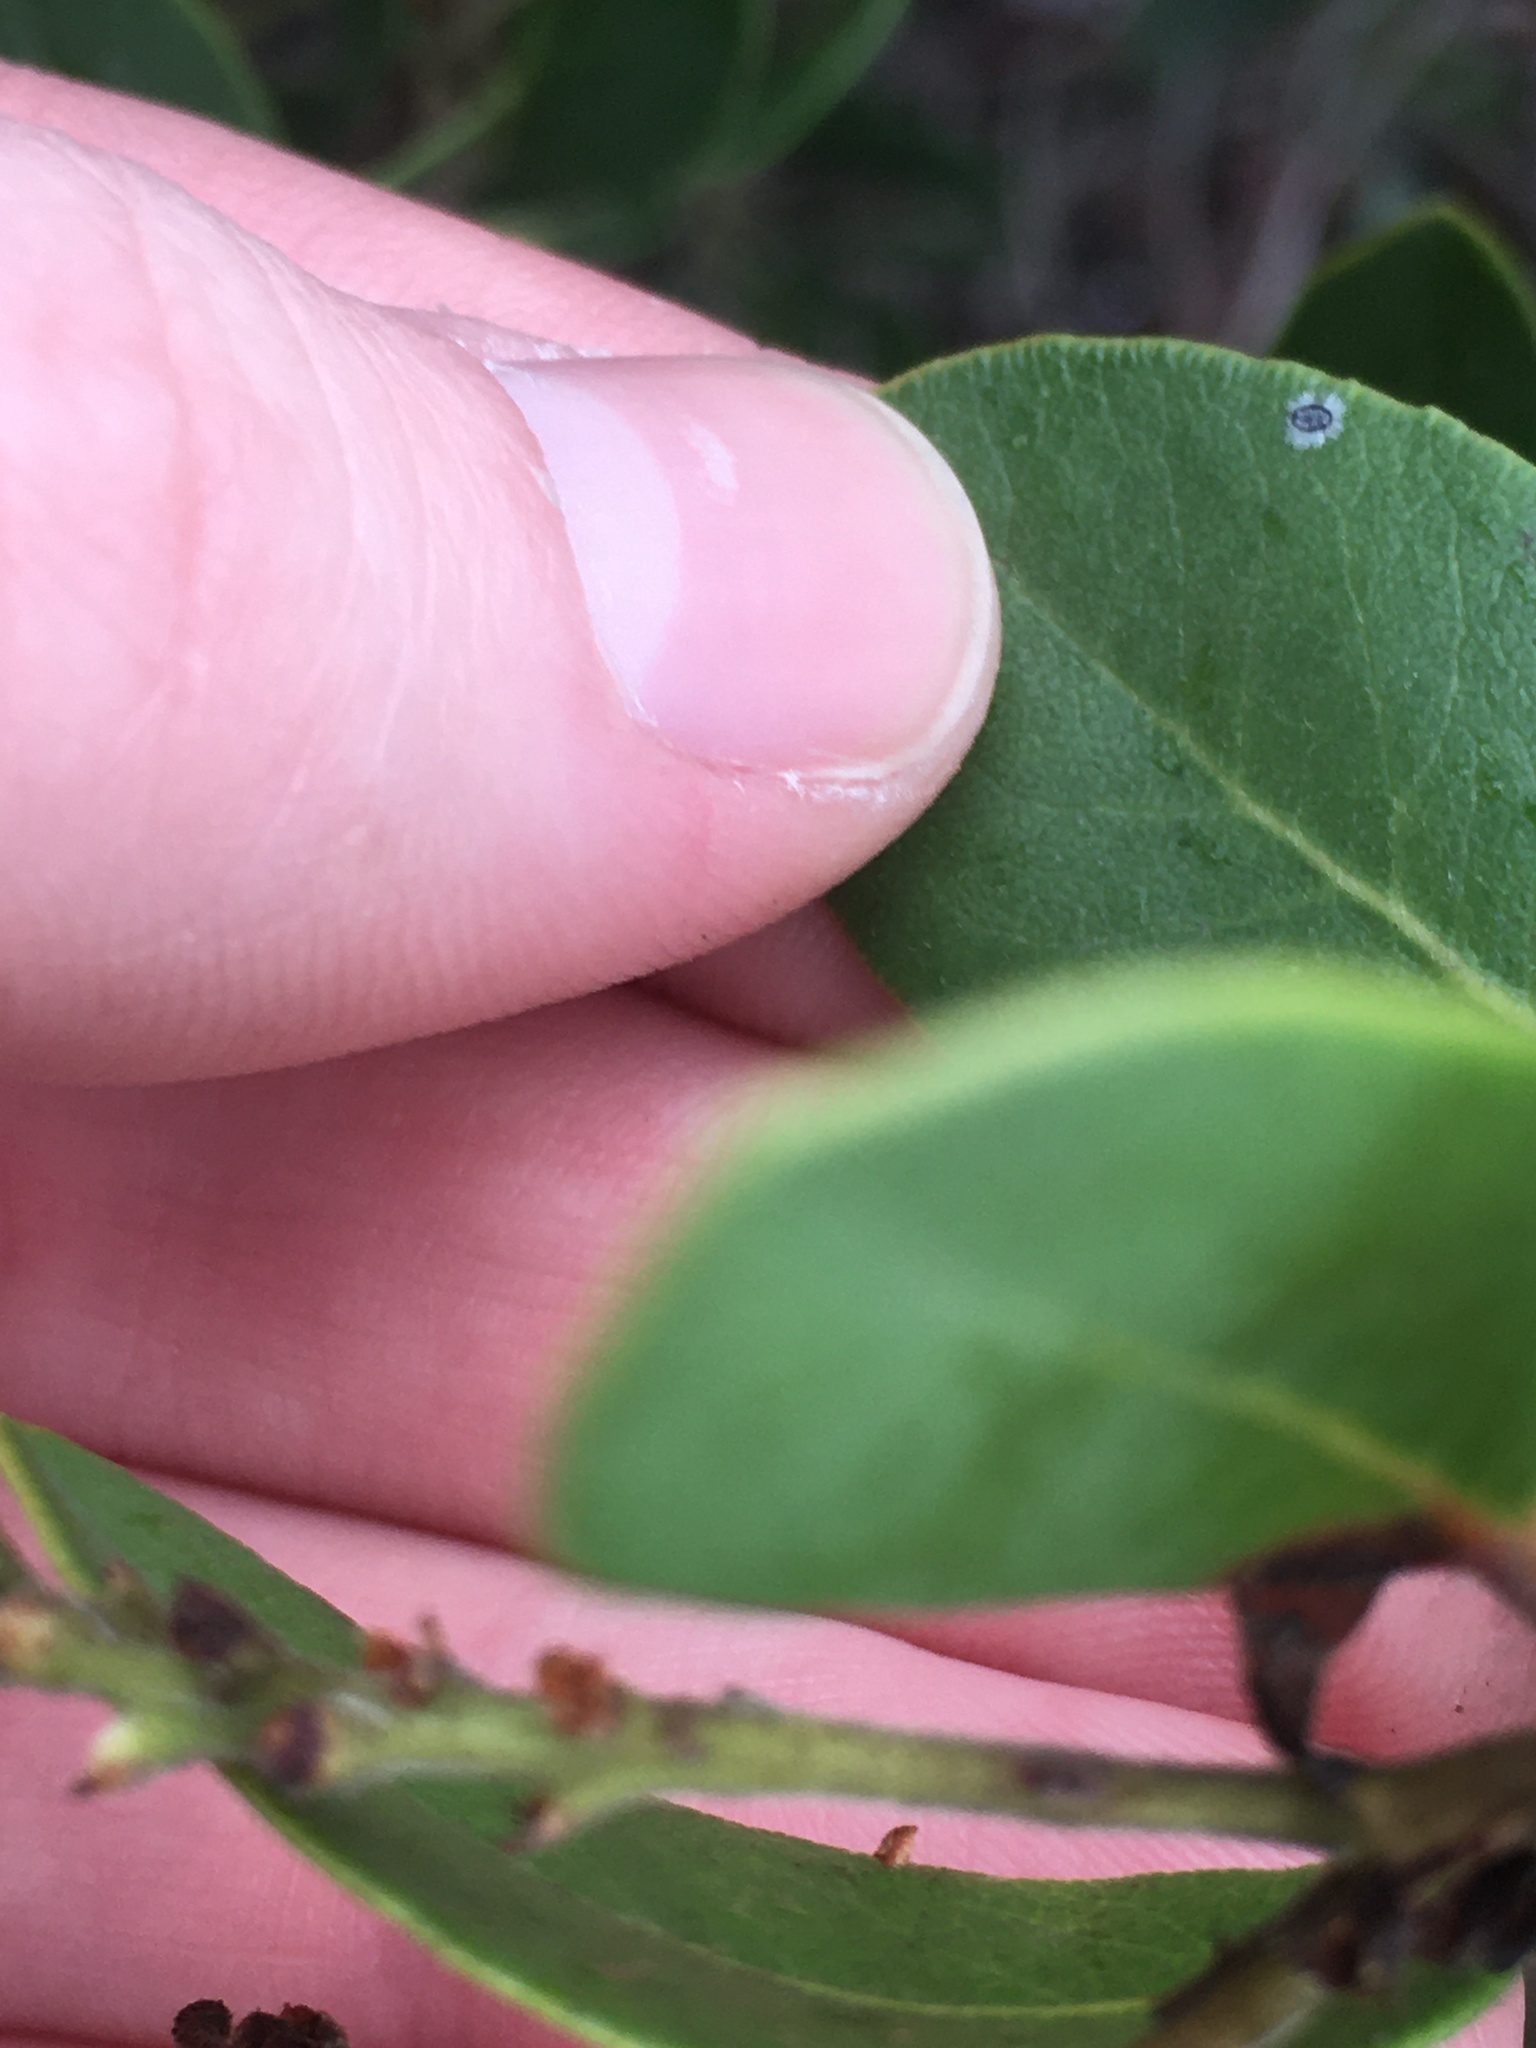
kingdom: Plantae
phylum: Tracheophyta
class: Magnoliopsida
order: Ericales
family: Ericaceae
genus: Arctostaphylos
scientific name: Arctostaphylos insularis
